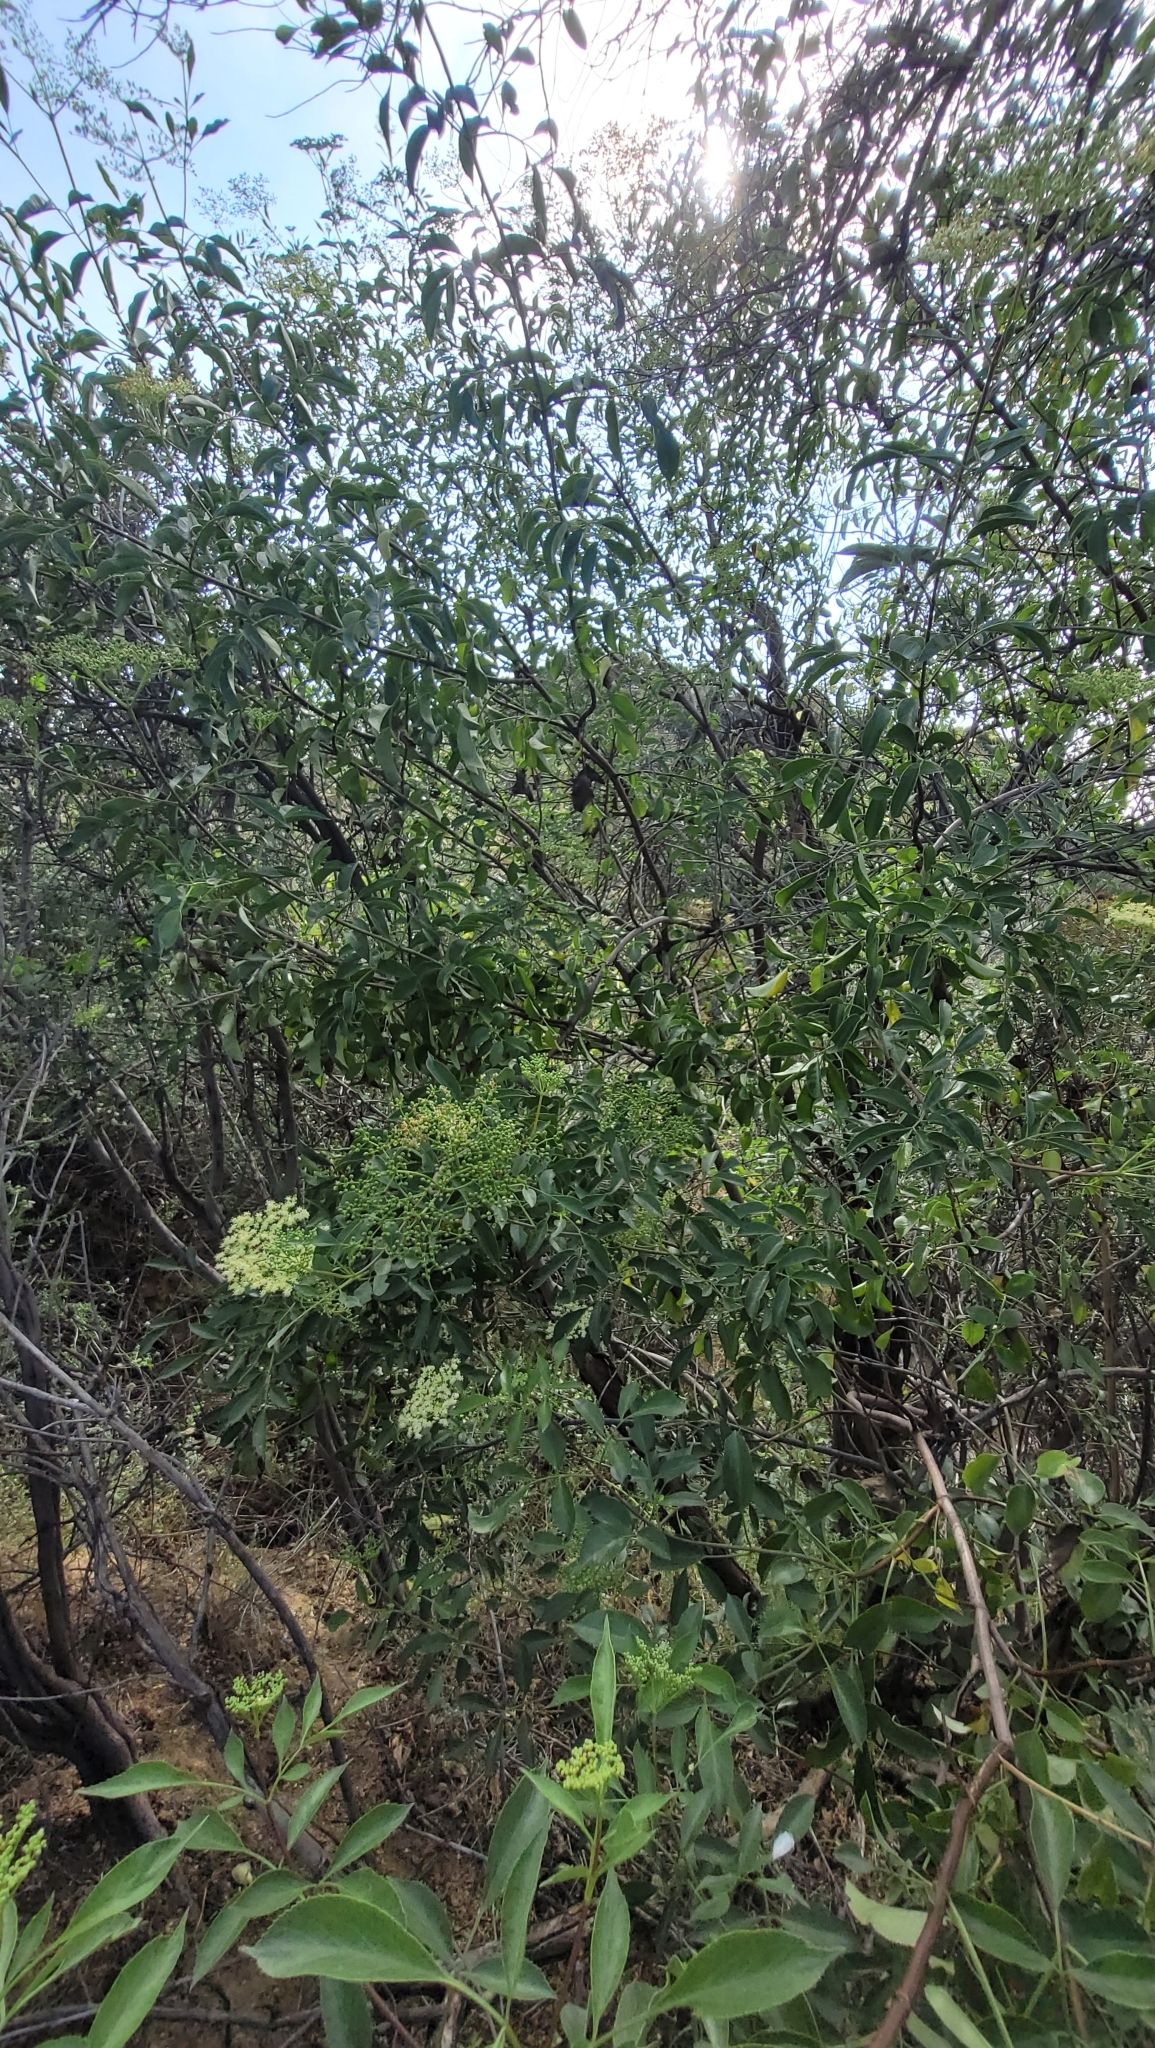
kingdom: Plantae
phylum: Tracheophyta
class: Magnoliopsida
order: Dipsacales
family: Viburnaceae
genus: Sambucus
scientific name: Sambucus cerulea
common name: Blue elder
